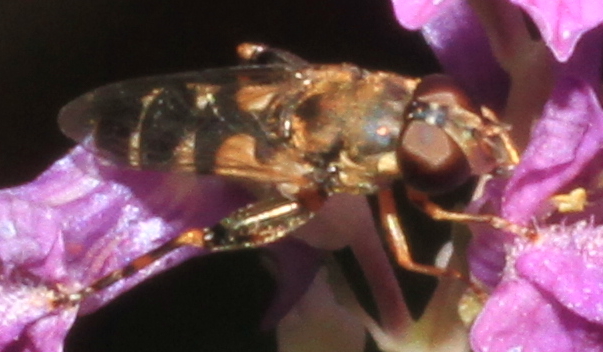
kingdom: Animalia
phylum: Arthropoda
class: Insecta
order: Diptera
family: Syrphidae
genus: Syritta
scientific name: Syritta pipiens
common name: Hover fly
